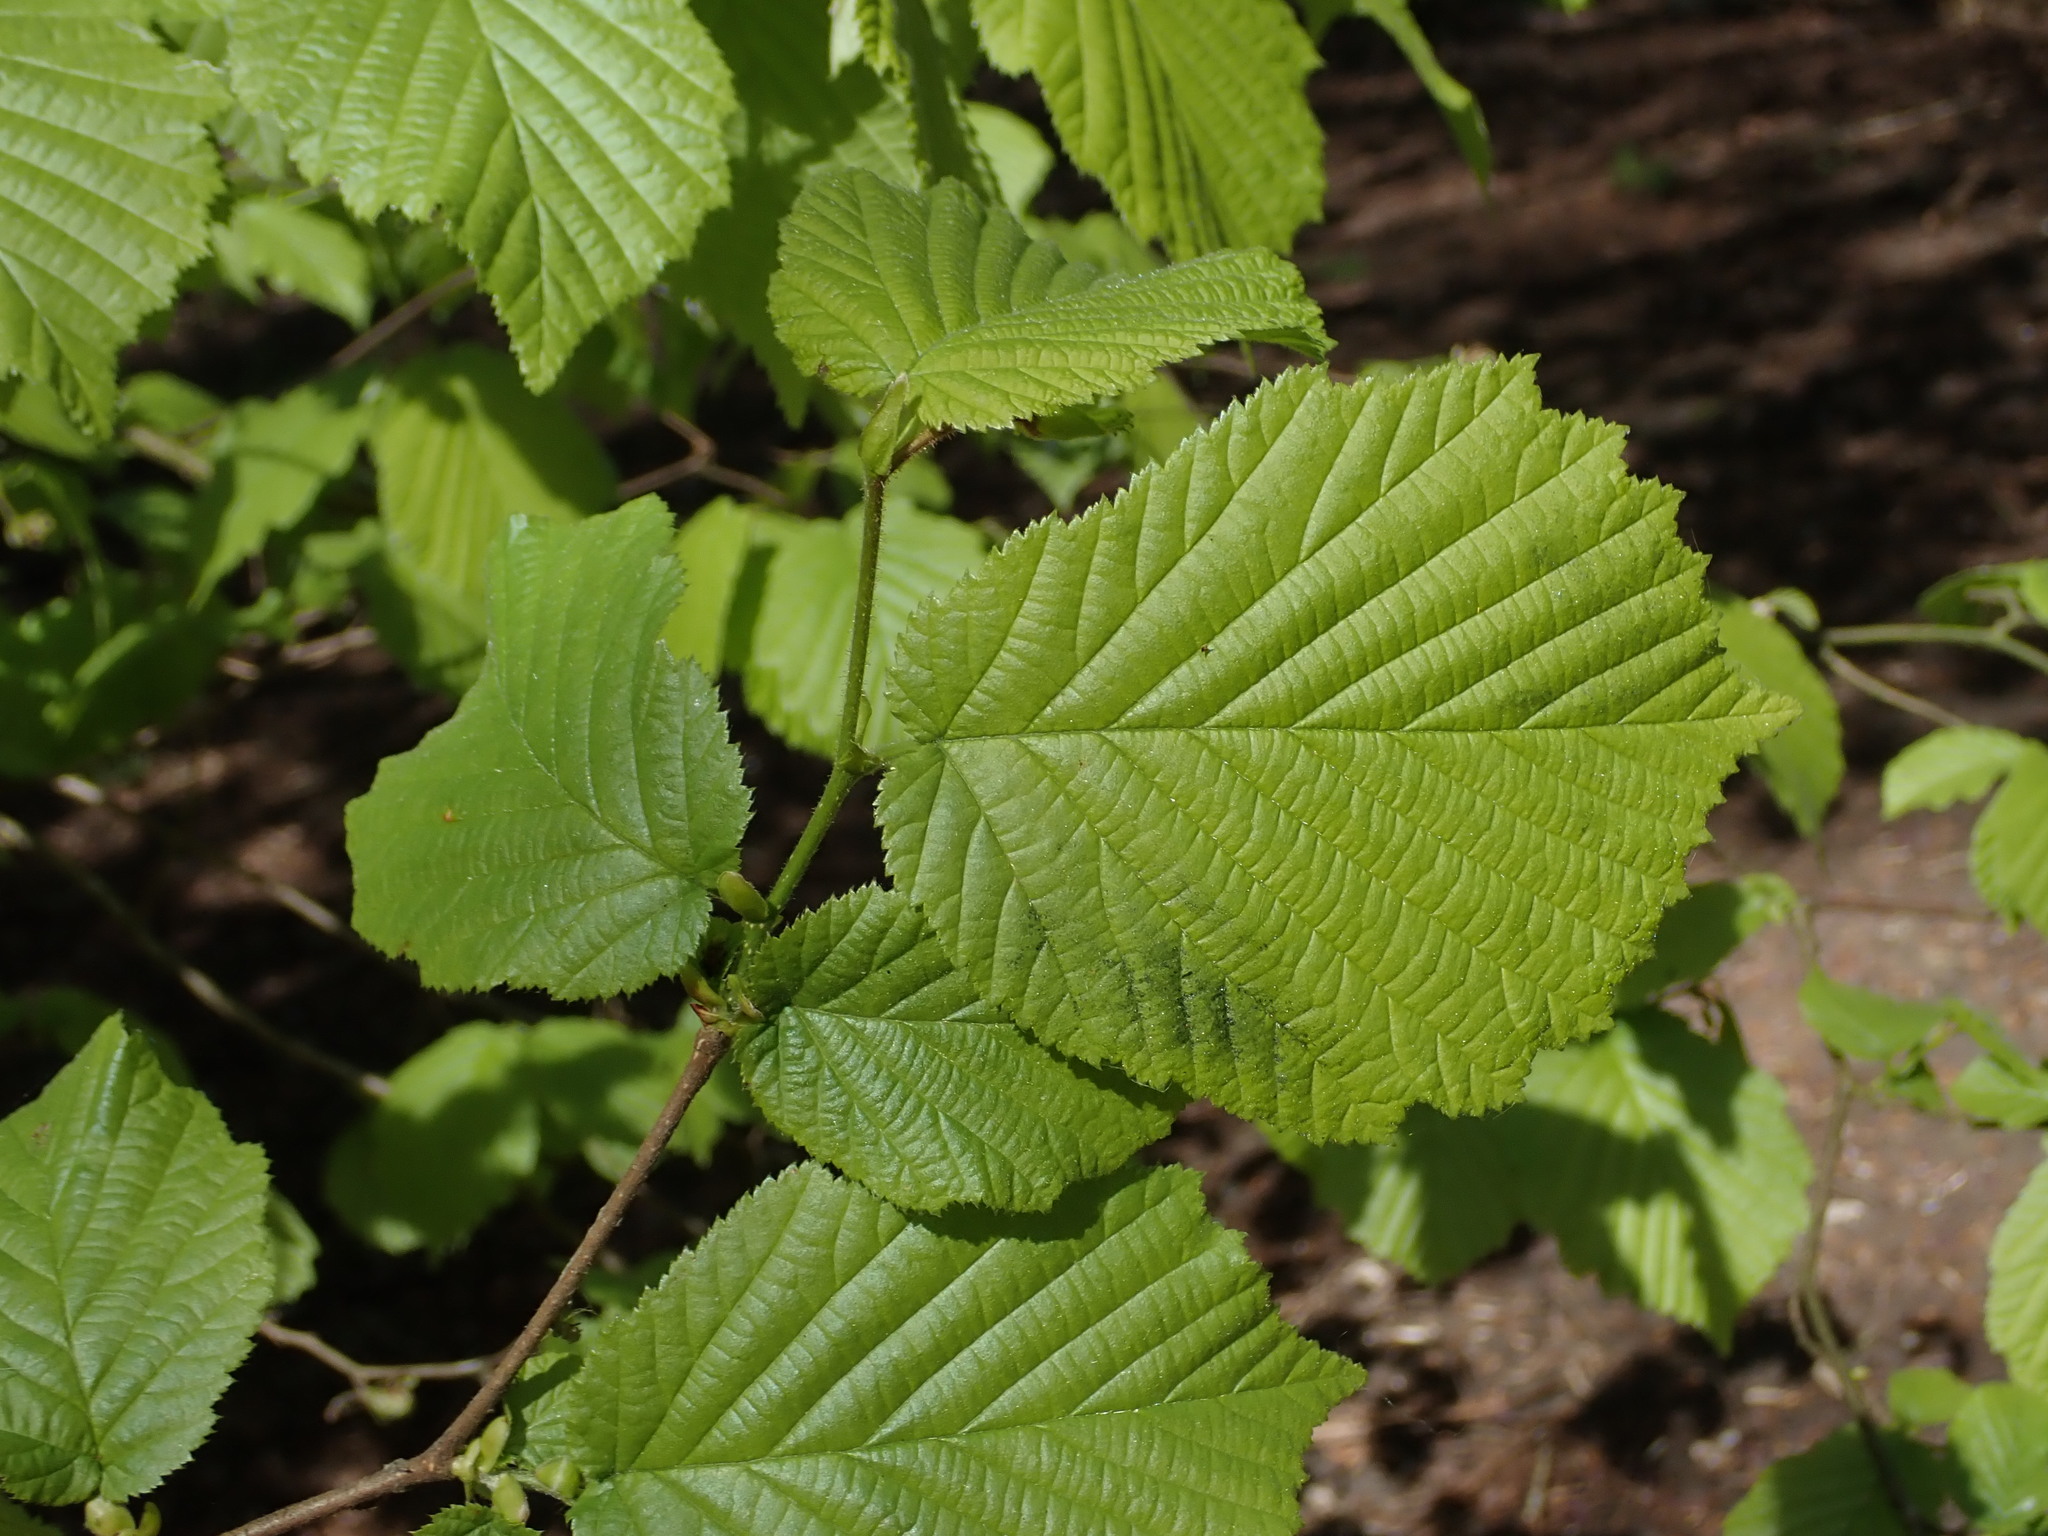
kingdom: Plantae
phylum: Tracheophyta
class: Magnoliopsida
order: Fagales
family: Betulaceae
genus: Corylus
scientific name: Corylus avellana
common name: European hazel
